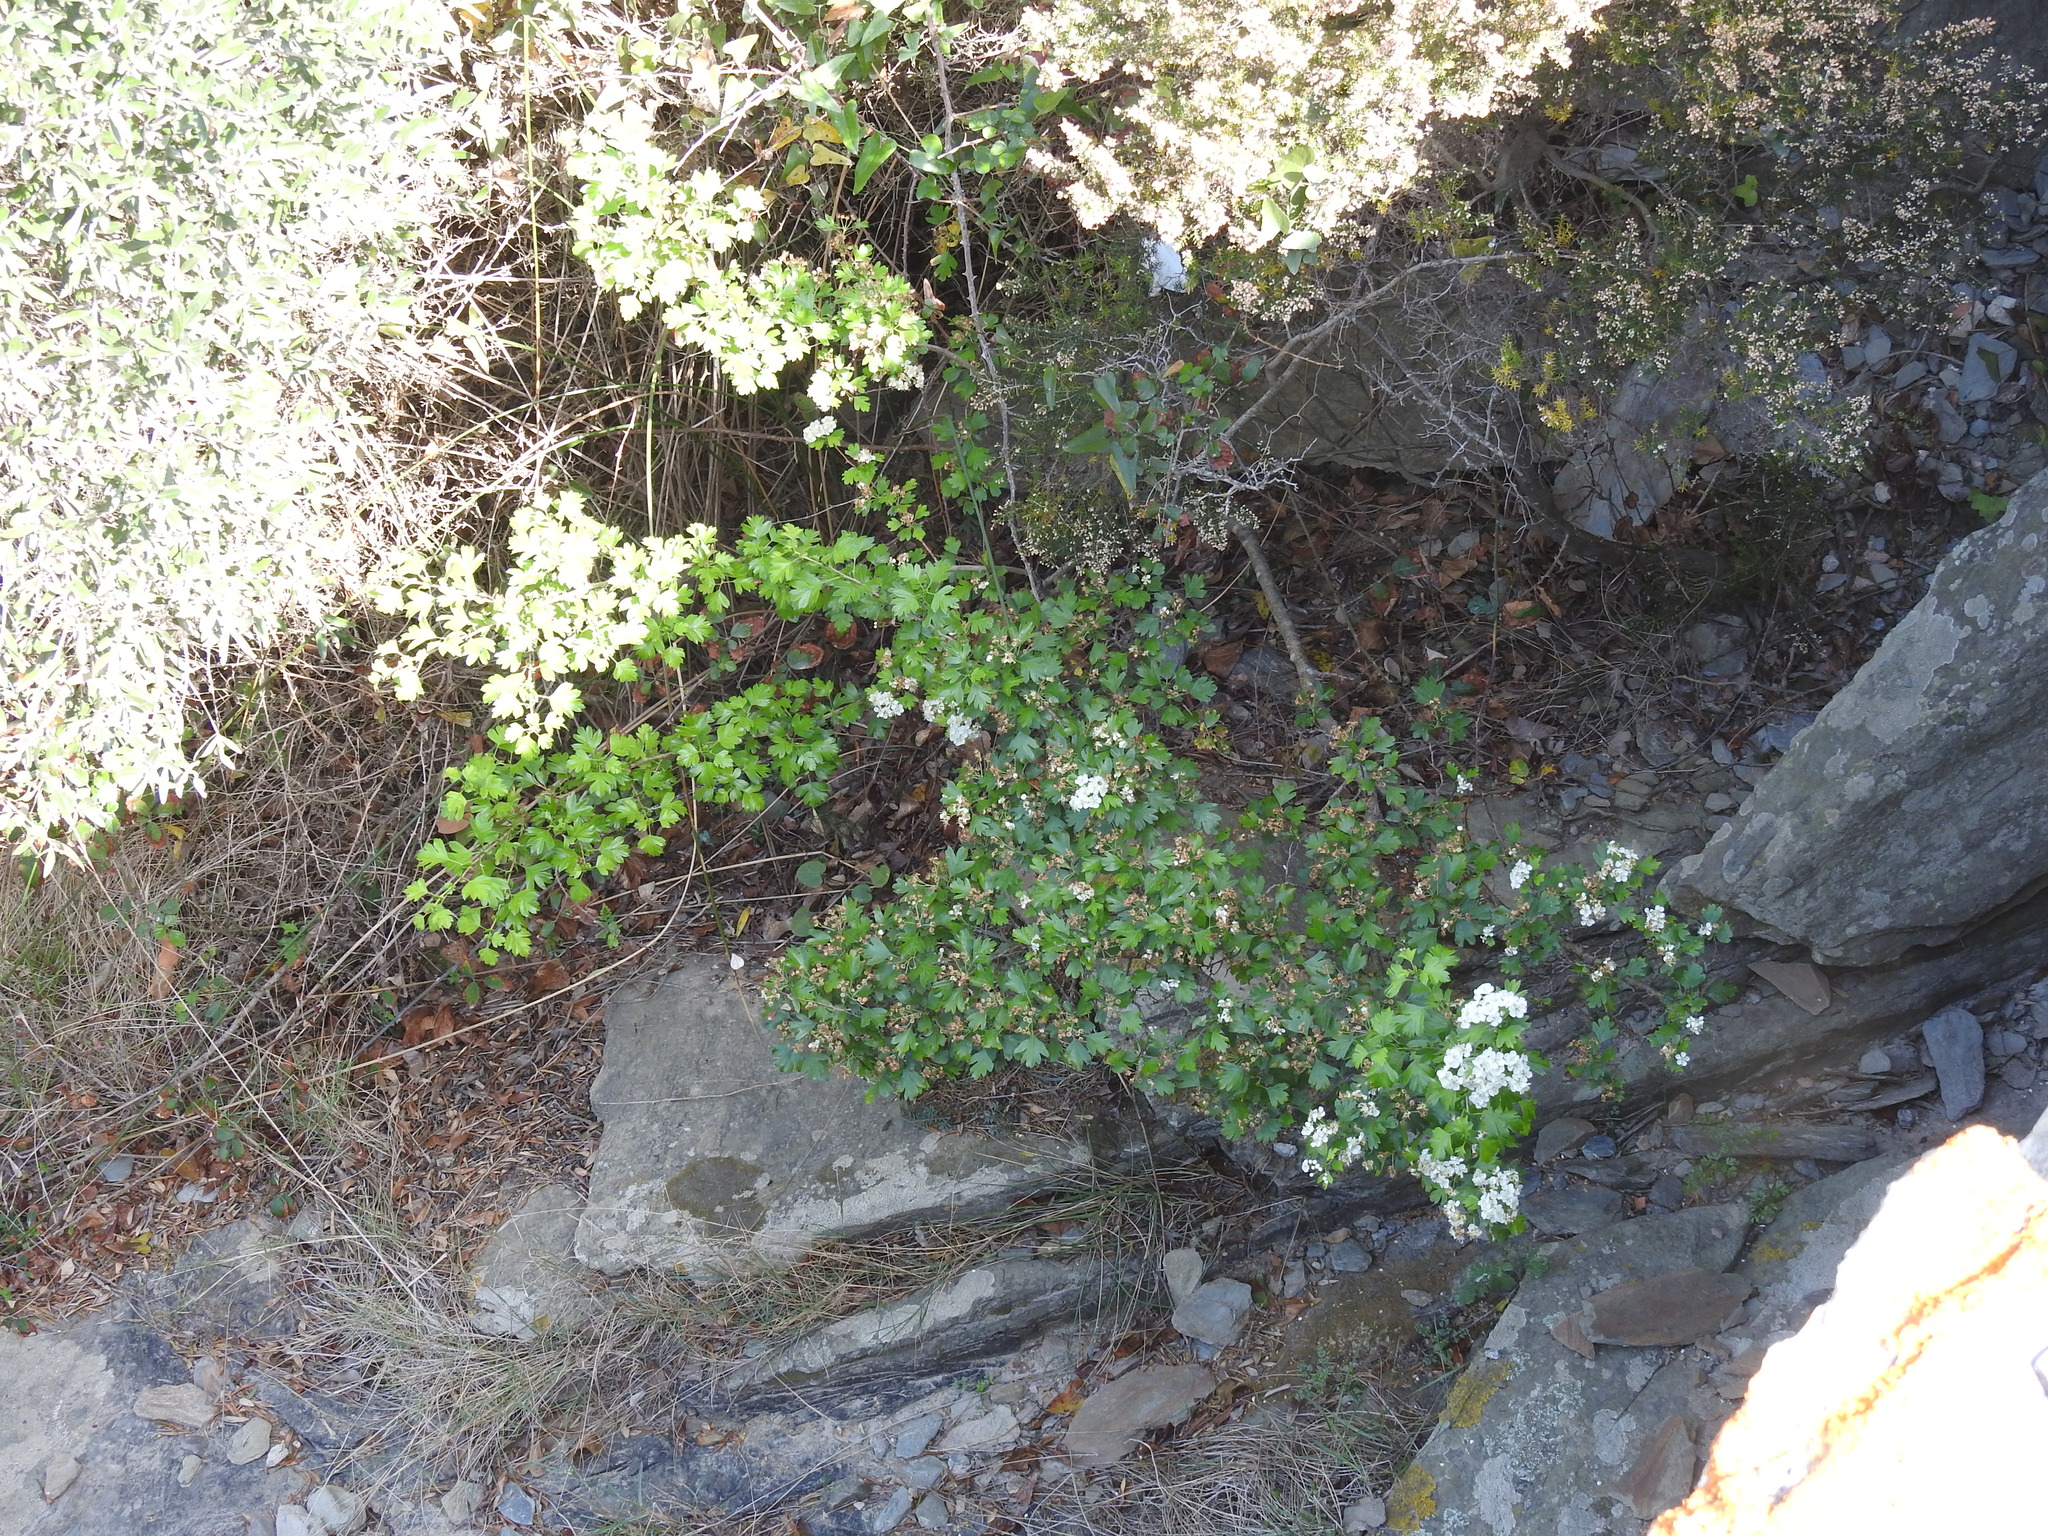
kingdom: Plantae
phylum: Tracheophyta
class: Magnoliopsida
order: Rosales
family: Rosaceae
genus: Crataegus
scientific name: Crataegus monogyna
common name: Hawthorn
